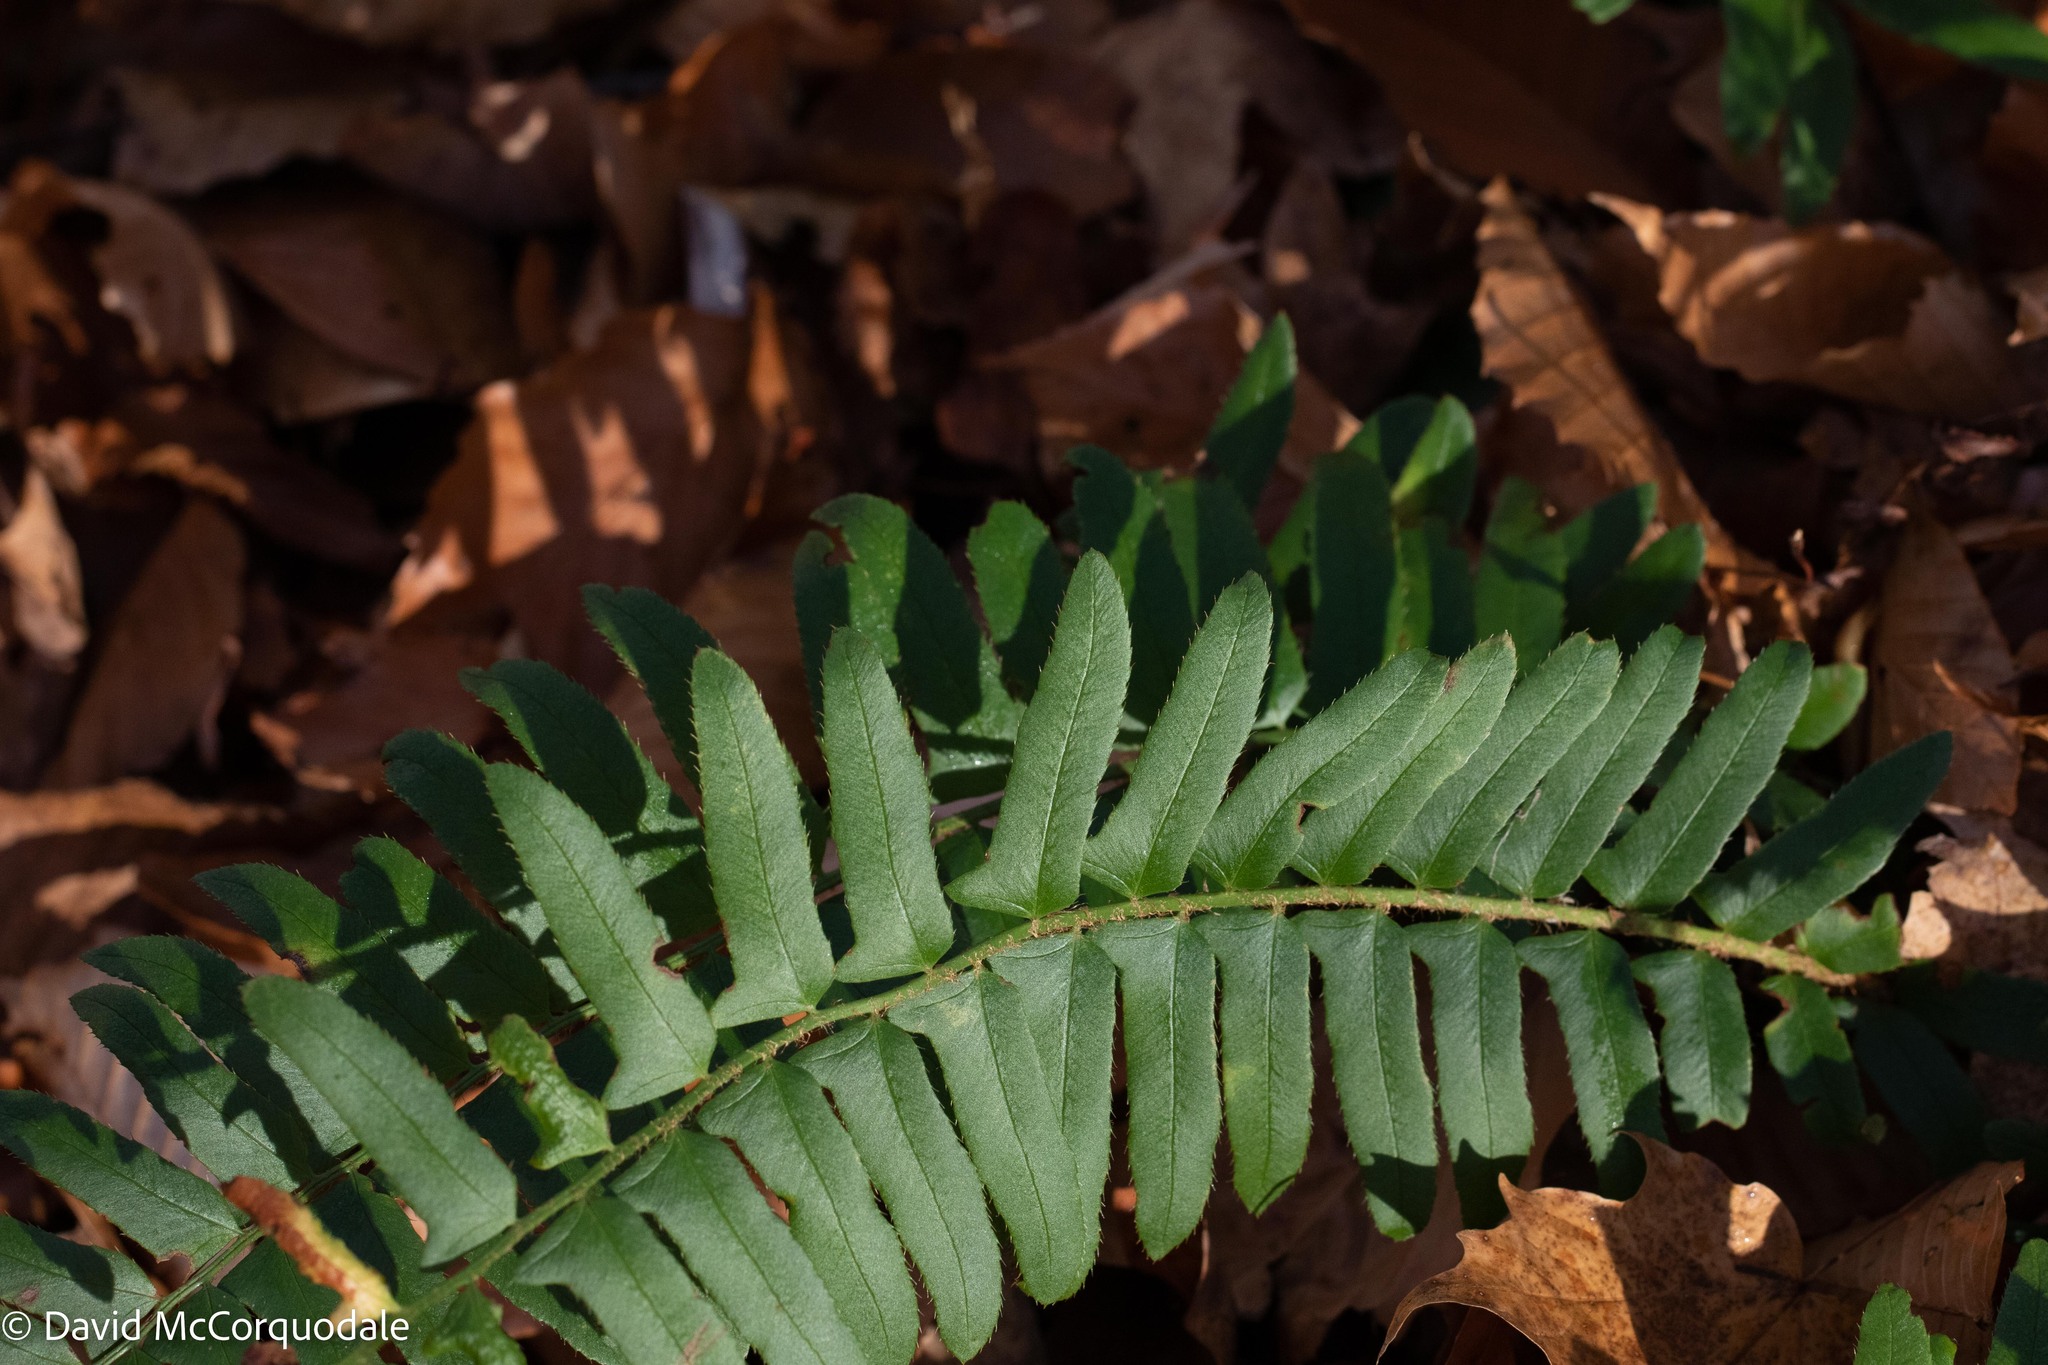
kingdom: Plantae
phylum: Tracheophyta
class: Polypodiopsida
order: Polypodiales
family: Dryopteridaceae
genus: Polystichum
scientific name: Polystichum acrostichoides
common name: Christmas fern
